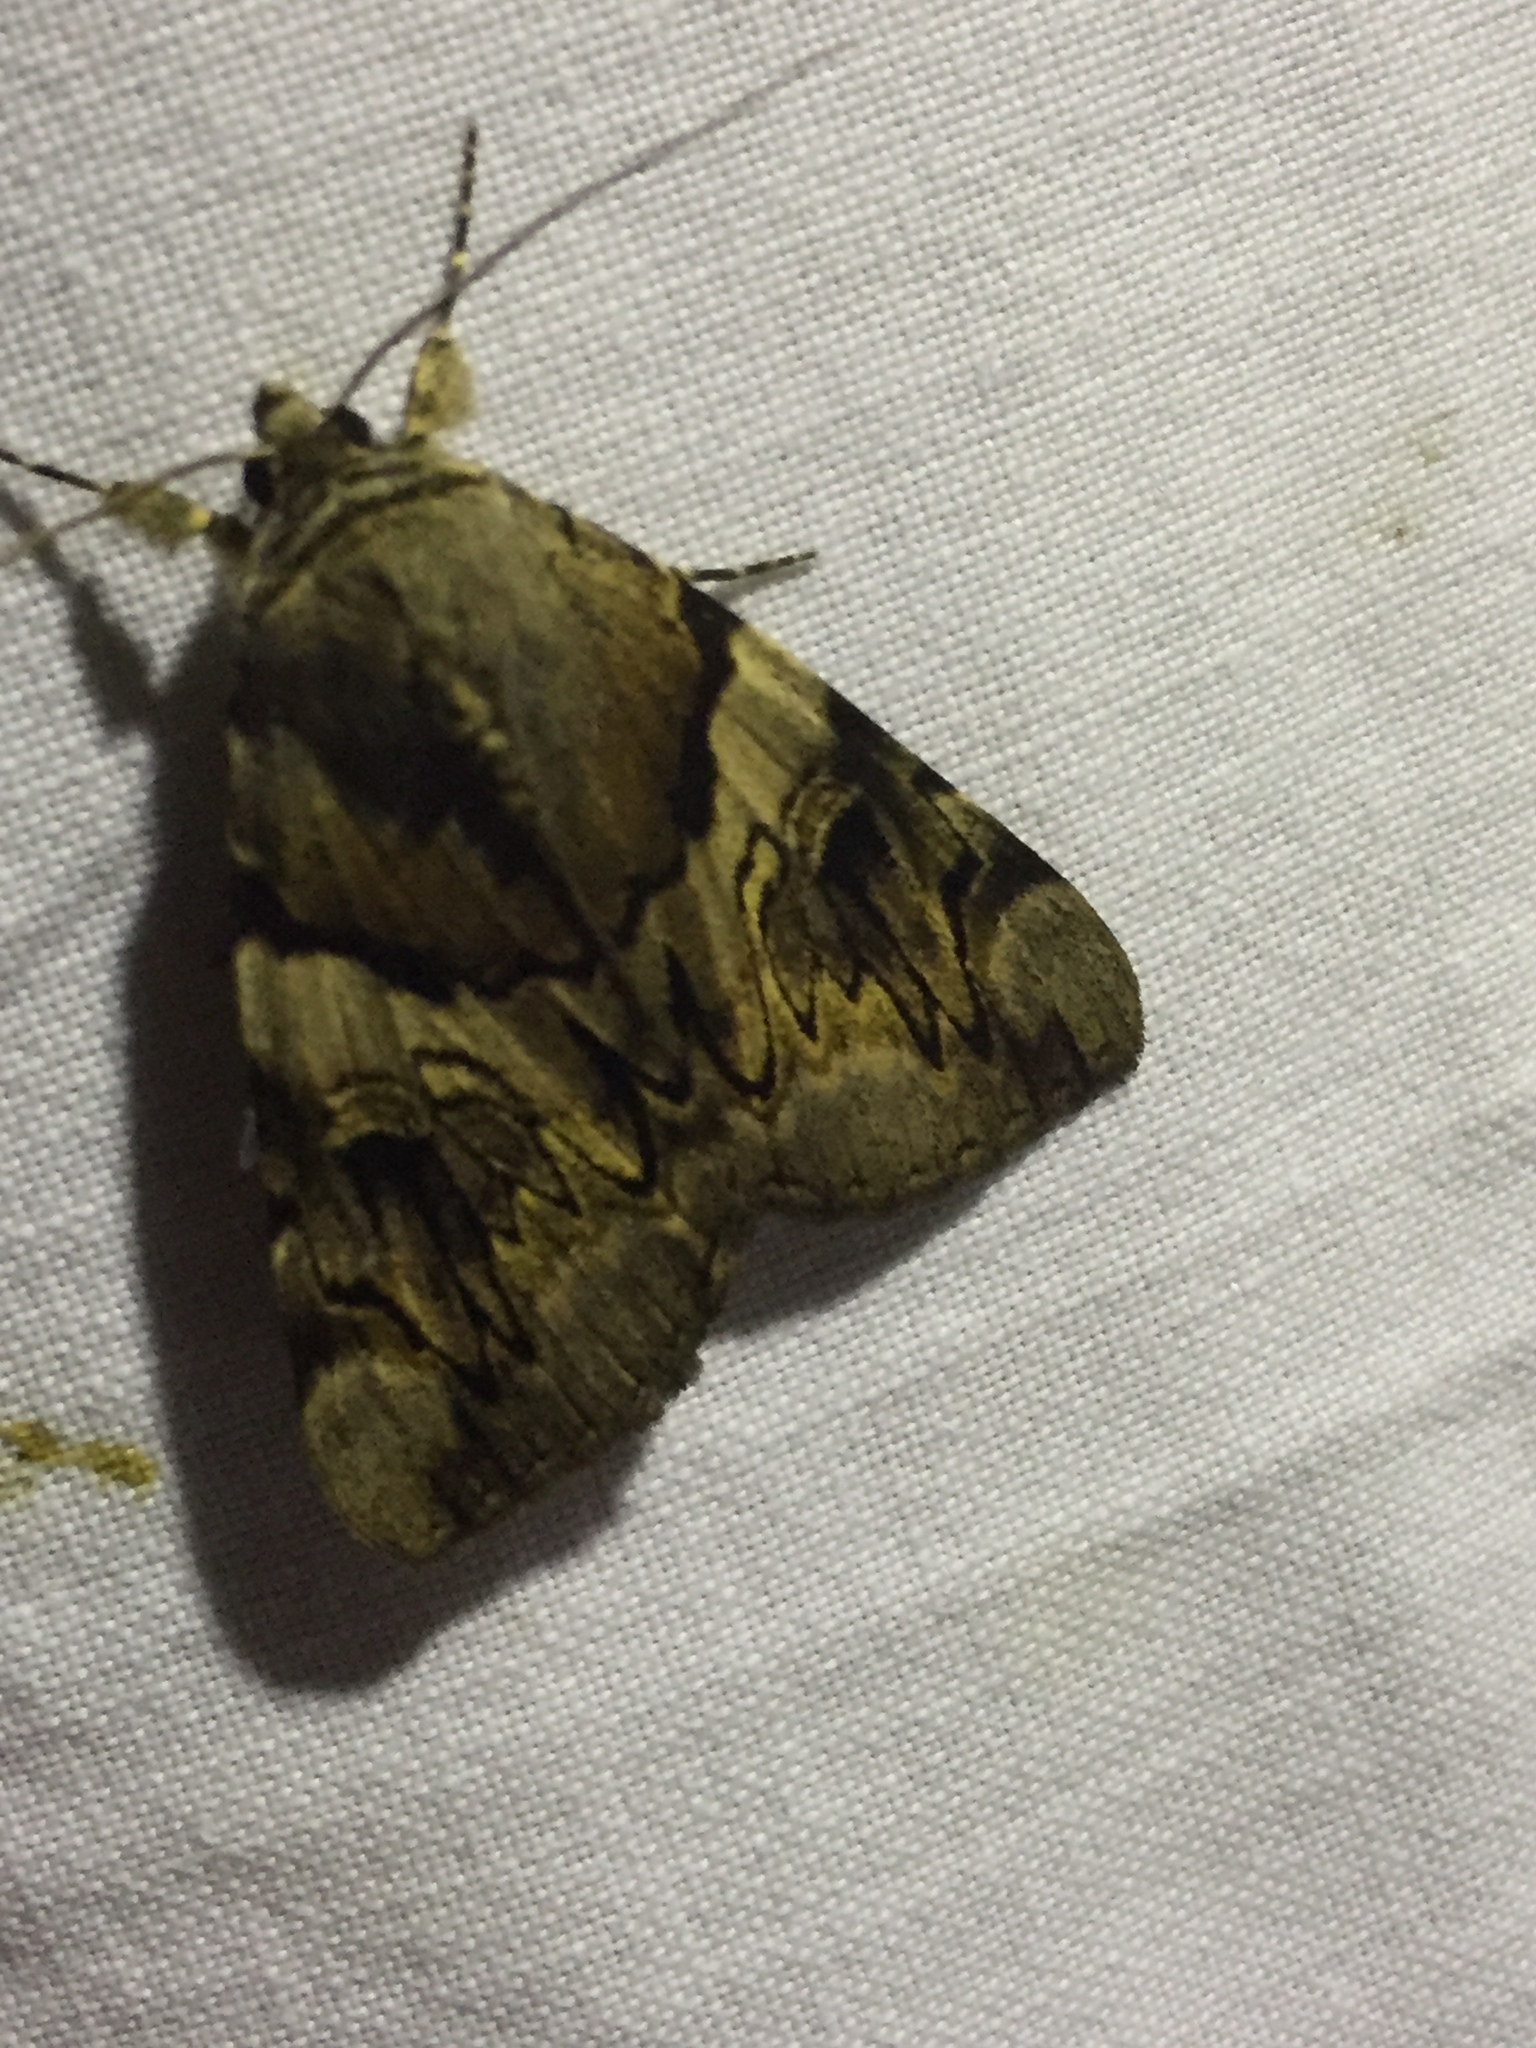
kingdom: Animalia
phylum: Arthropoda
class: Insecta
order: Lepidoptera
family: Erebidae
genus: Catocala
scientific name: Catocala fulminea
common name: Yellow bands underwing
